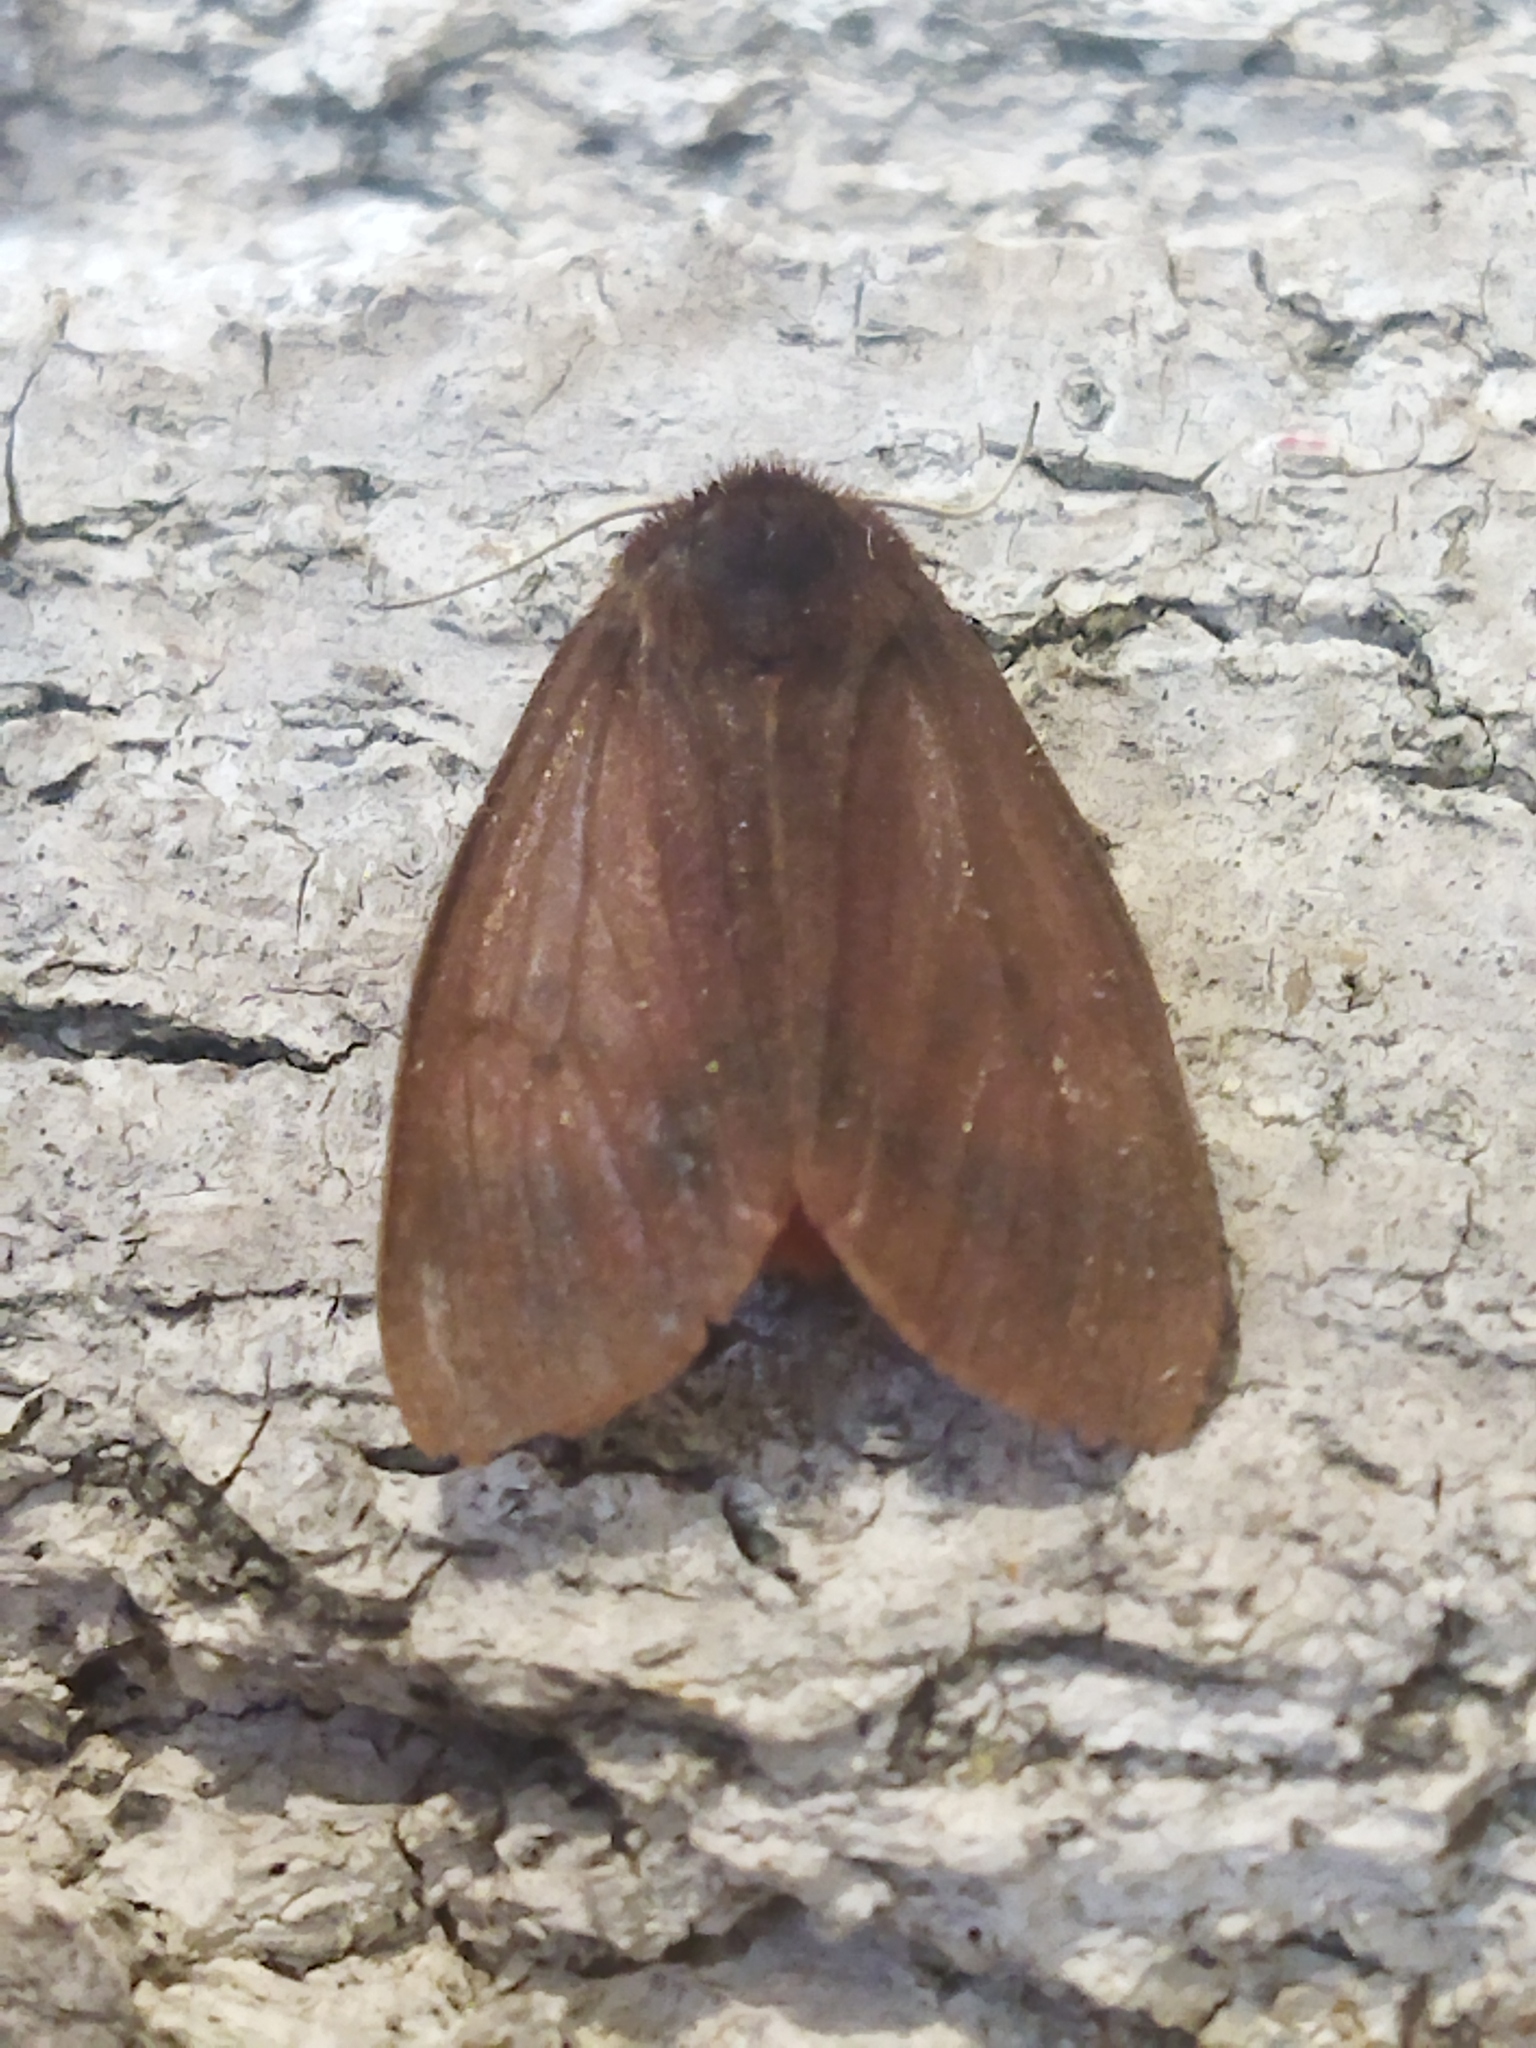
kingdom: Animalia
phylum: Arthropoda
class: Insecta
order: Lepidoptera
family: Erebidae
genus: Phragmatobia
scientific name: Phragmatobia fuliginosa
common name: Ruby tiger
